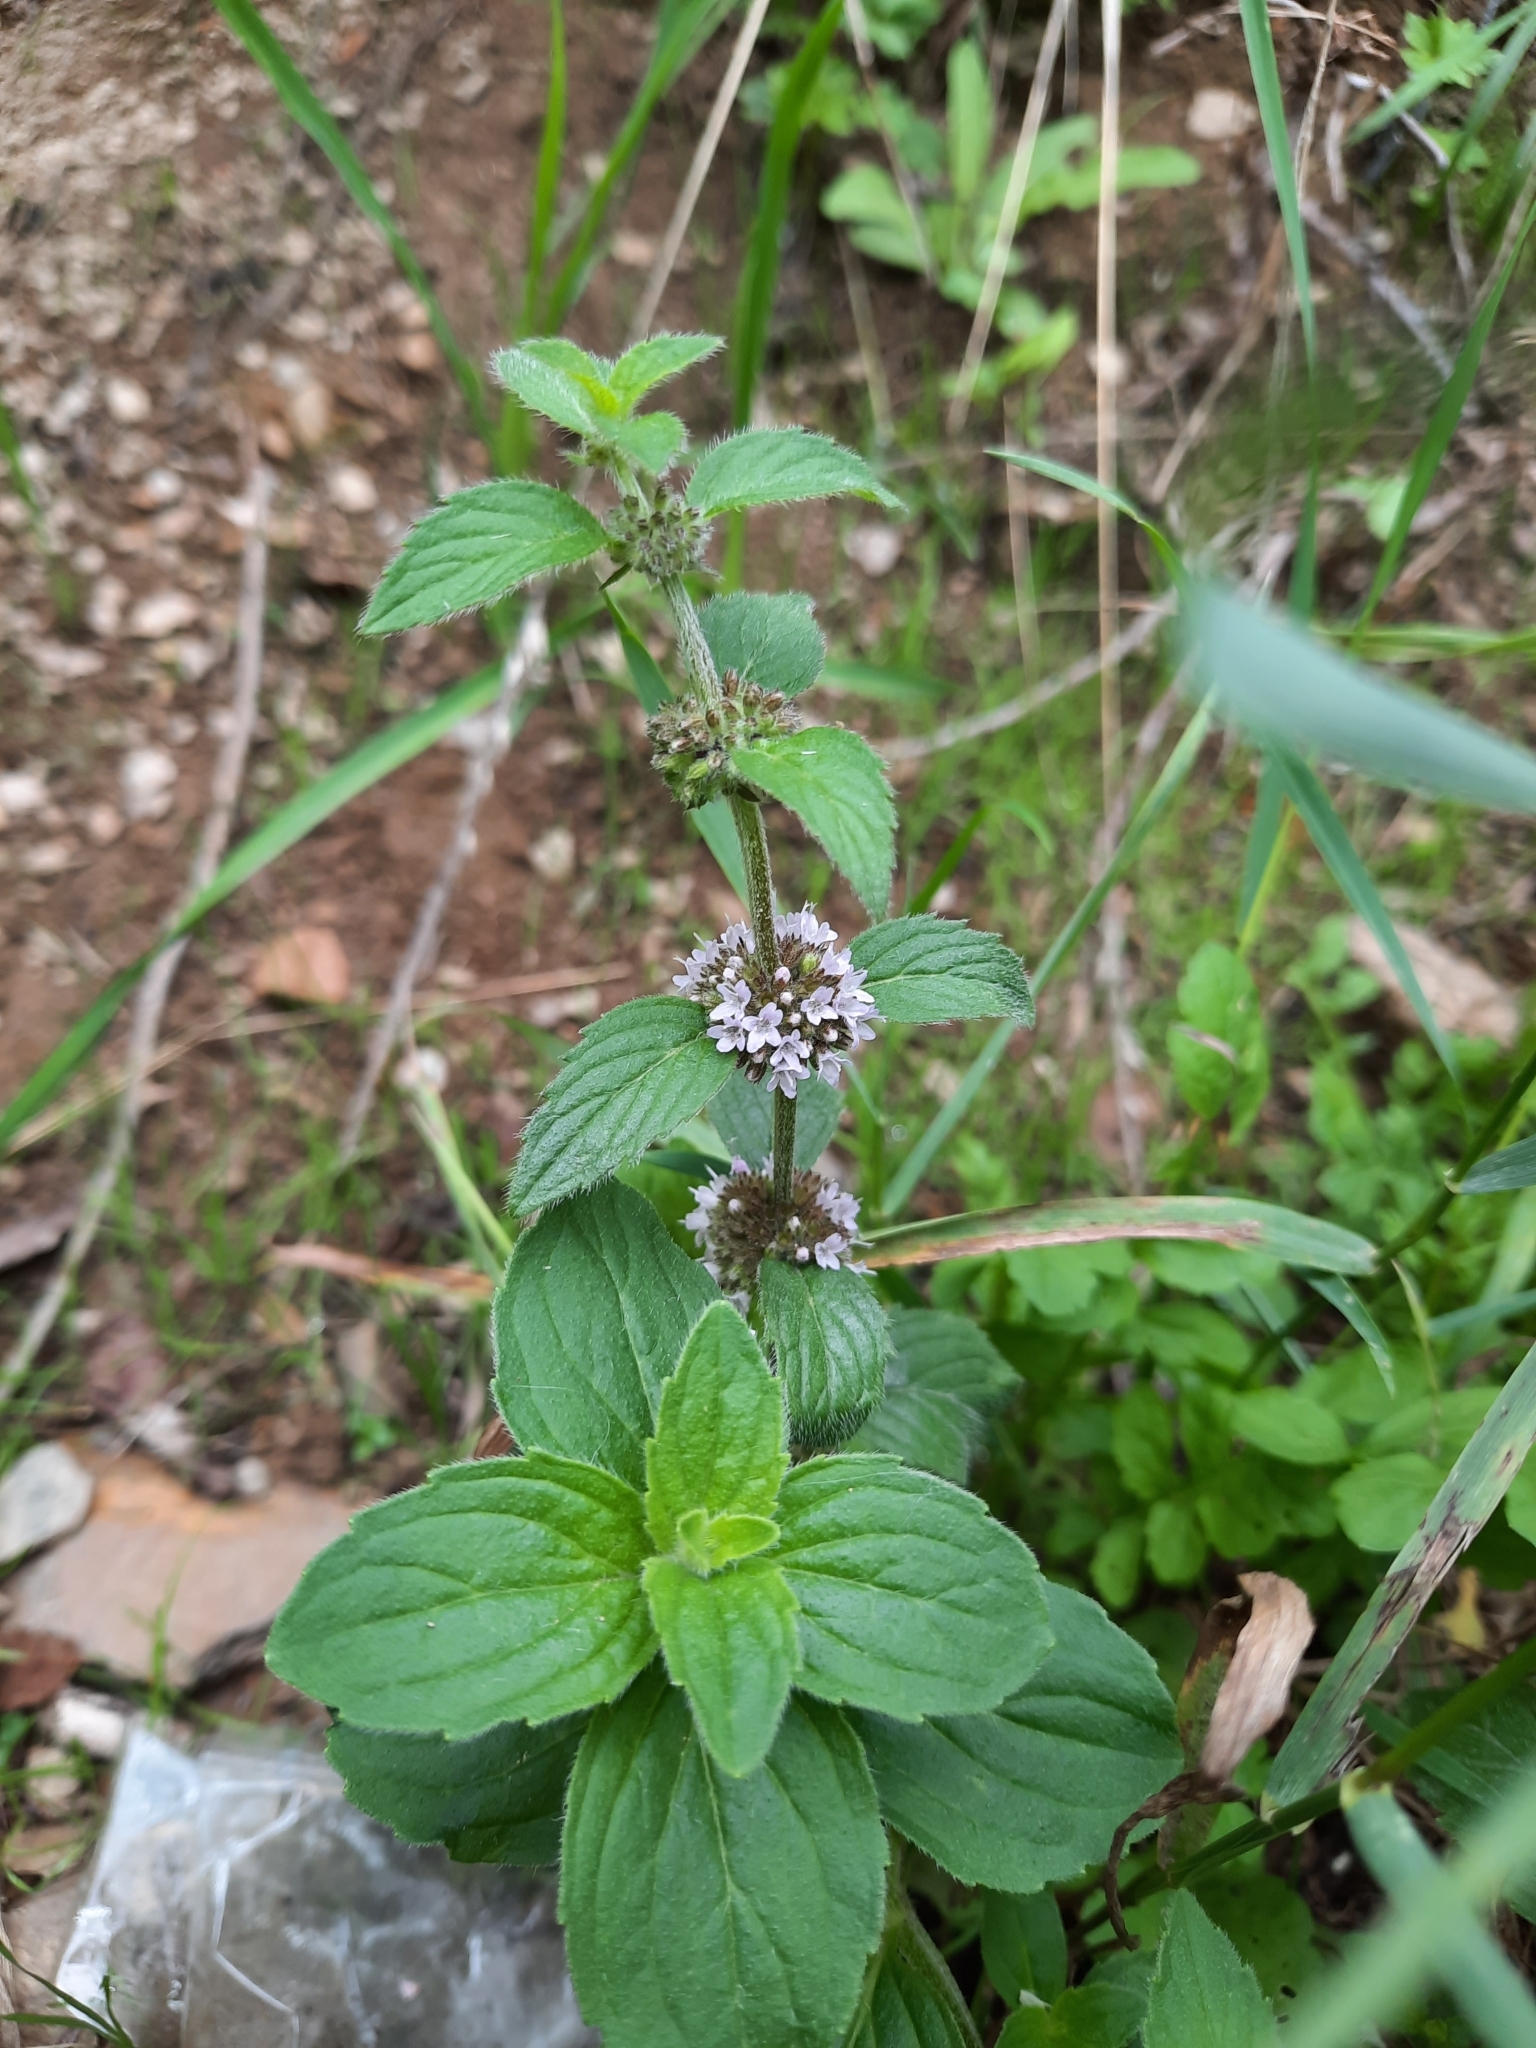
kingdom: Plantae
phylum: Tracheophyta
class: Magnoliopsida
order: Lamiales
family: Lamiaceae
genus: Mentha
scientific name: Mentha arvensis
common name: Corn mint
